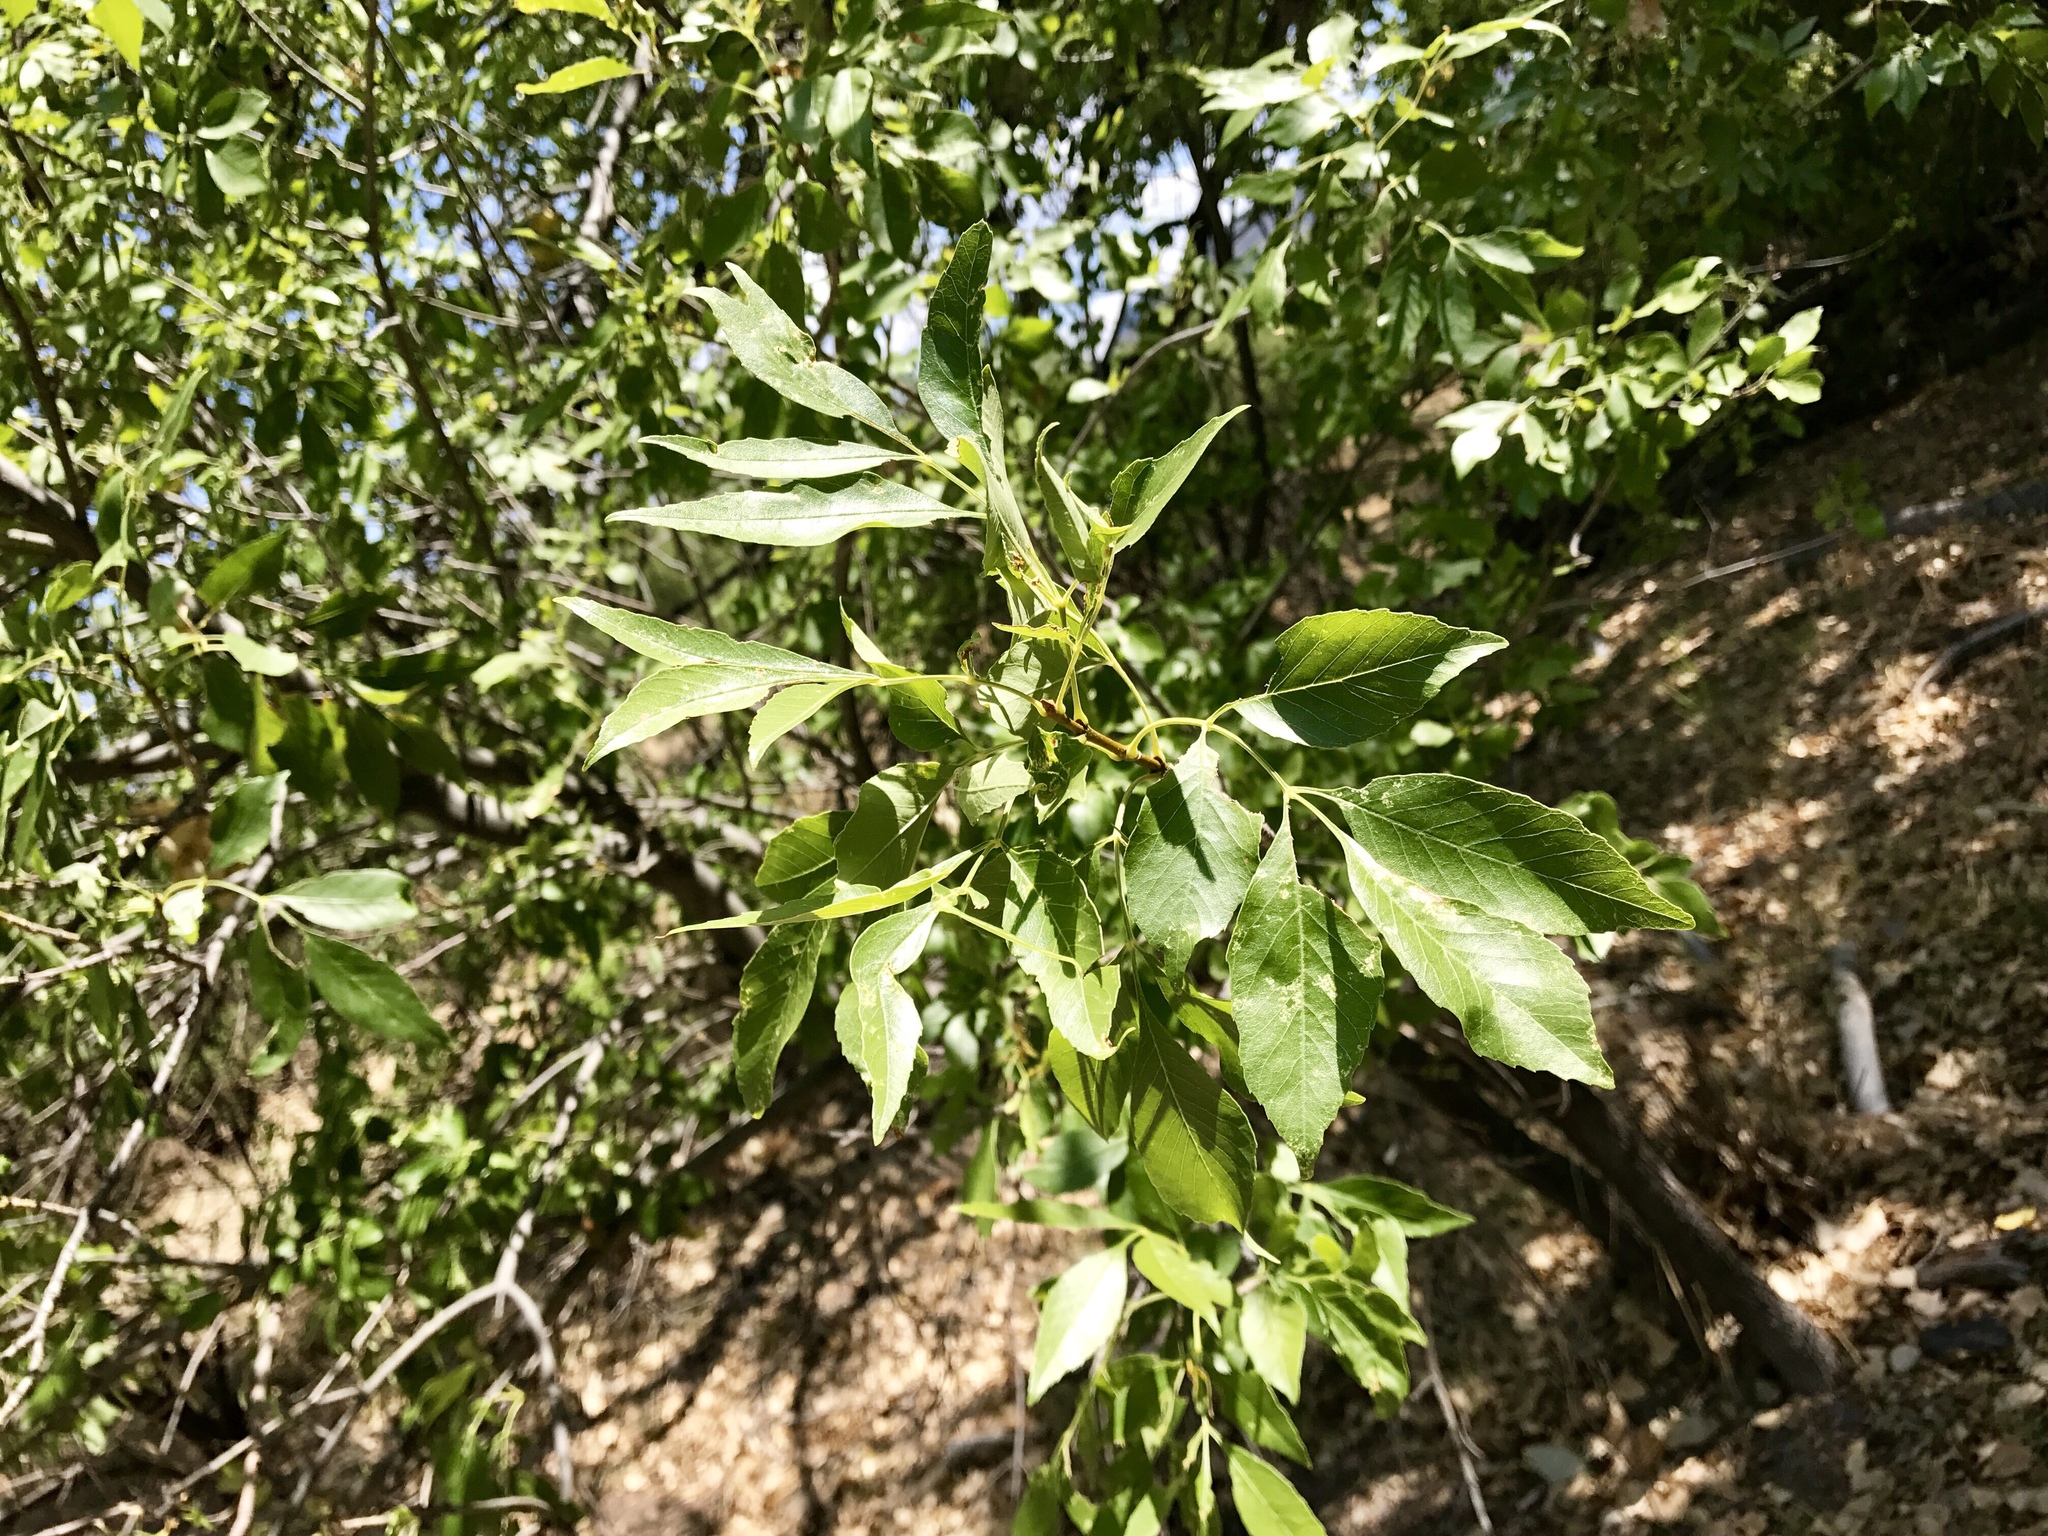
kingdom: Plantae
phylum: Tracheophyta
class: Magnoliopsida
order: Lamiales
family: Oleaceae
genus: Fraxinus
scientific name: Fraxinus velutina
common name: Arizon ash
